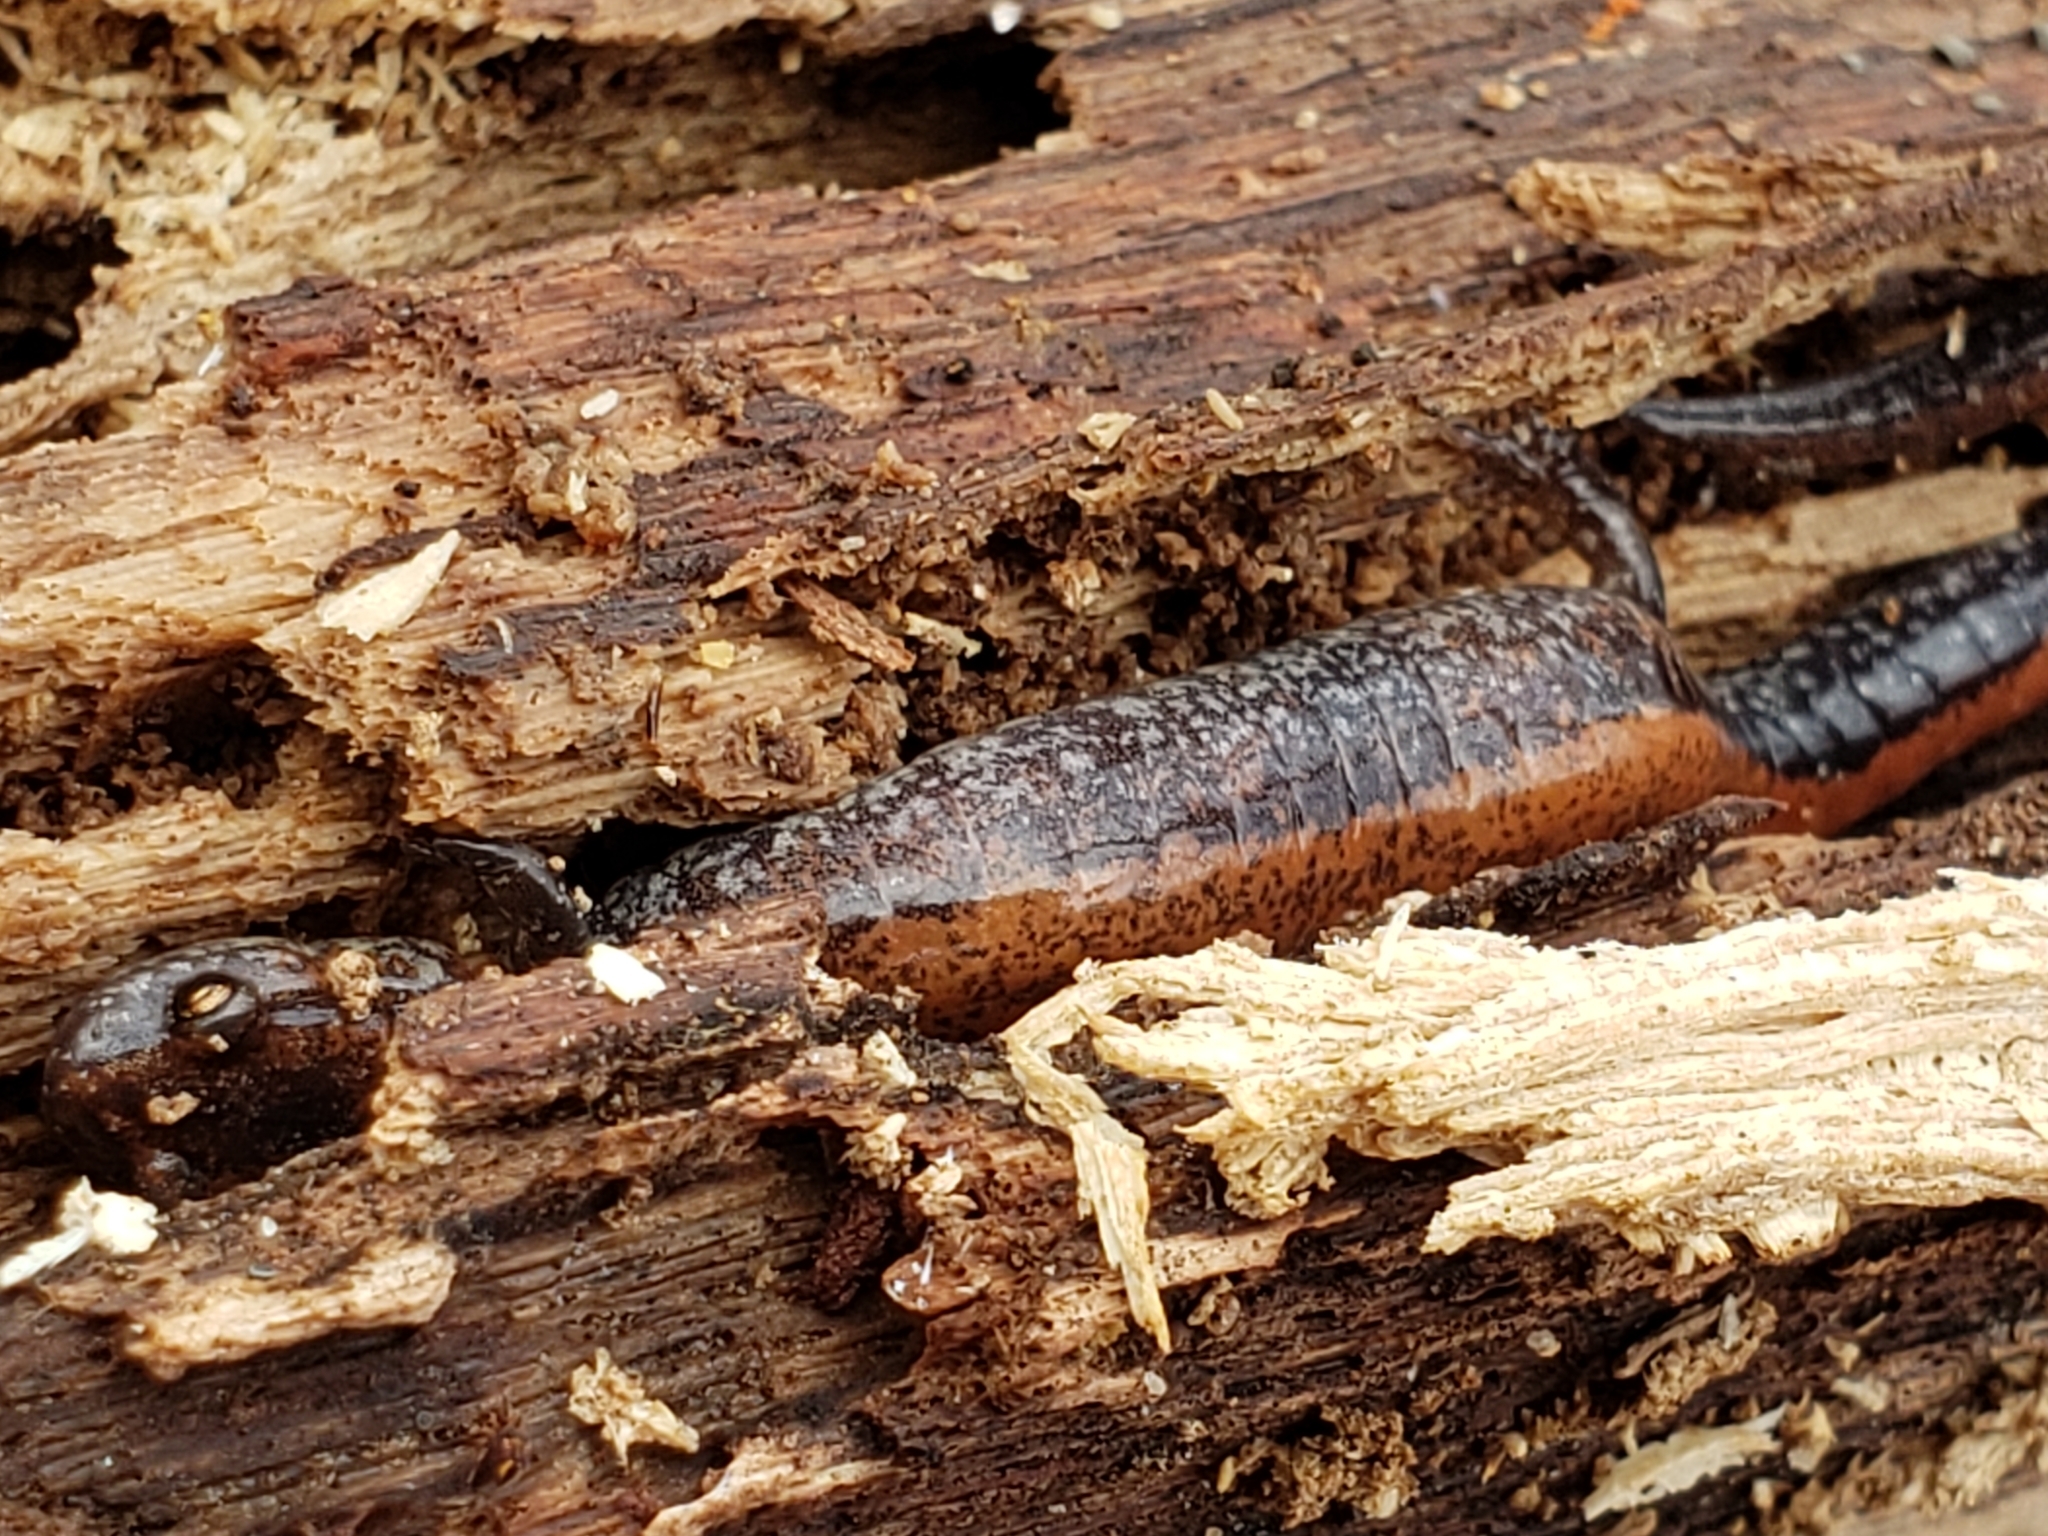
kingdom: Animalia
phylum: Chordata
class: Amphibia
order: Caudata
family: Plethodontidae
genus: Plethodon
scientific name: Plethodon cinereus
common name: Redback salamander
